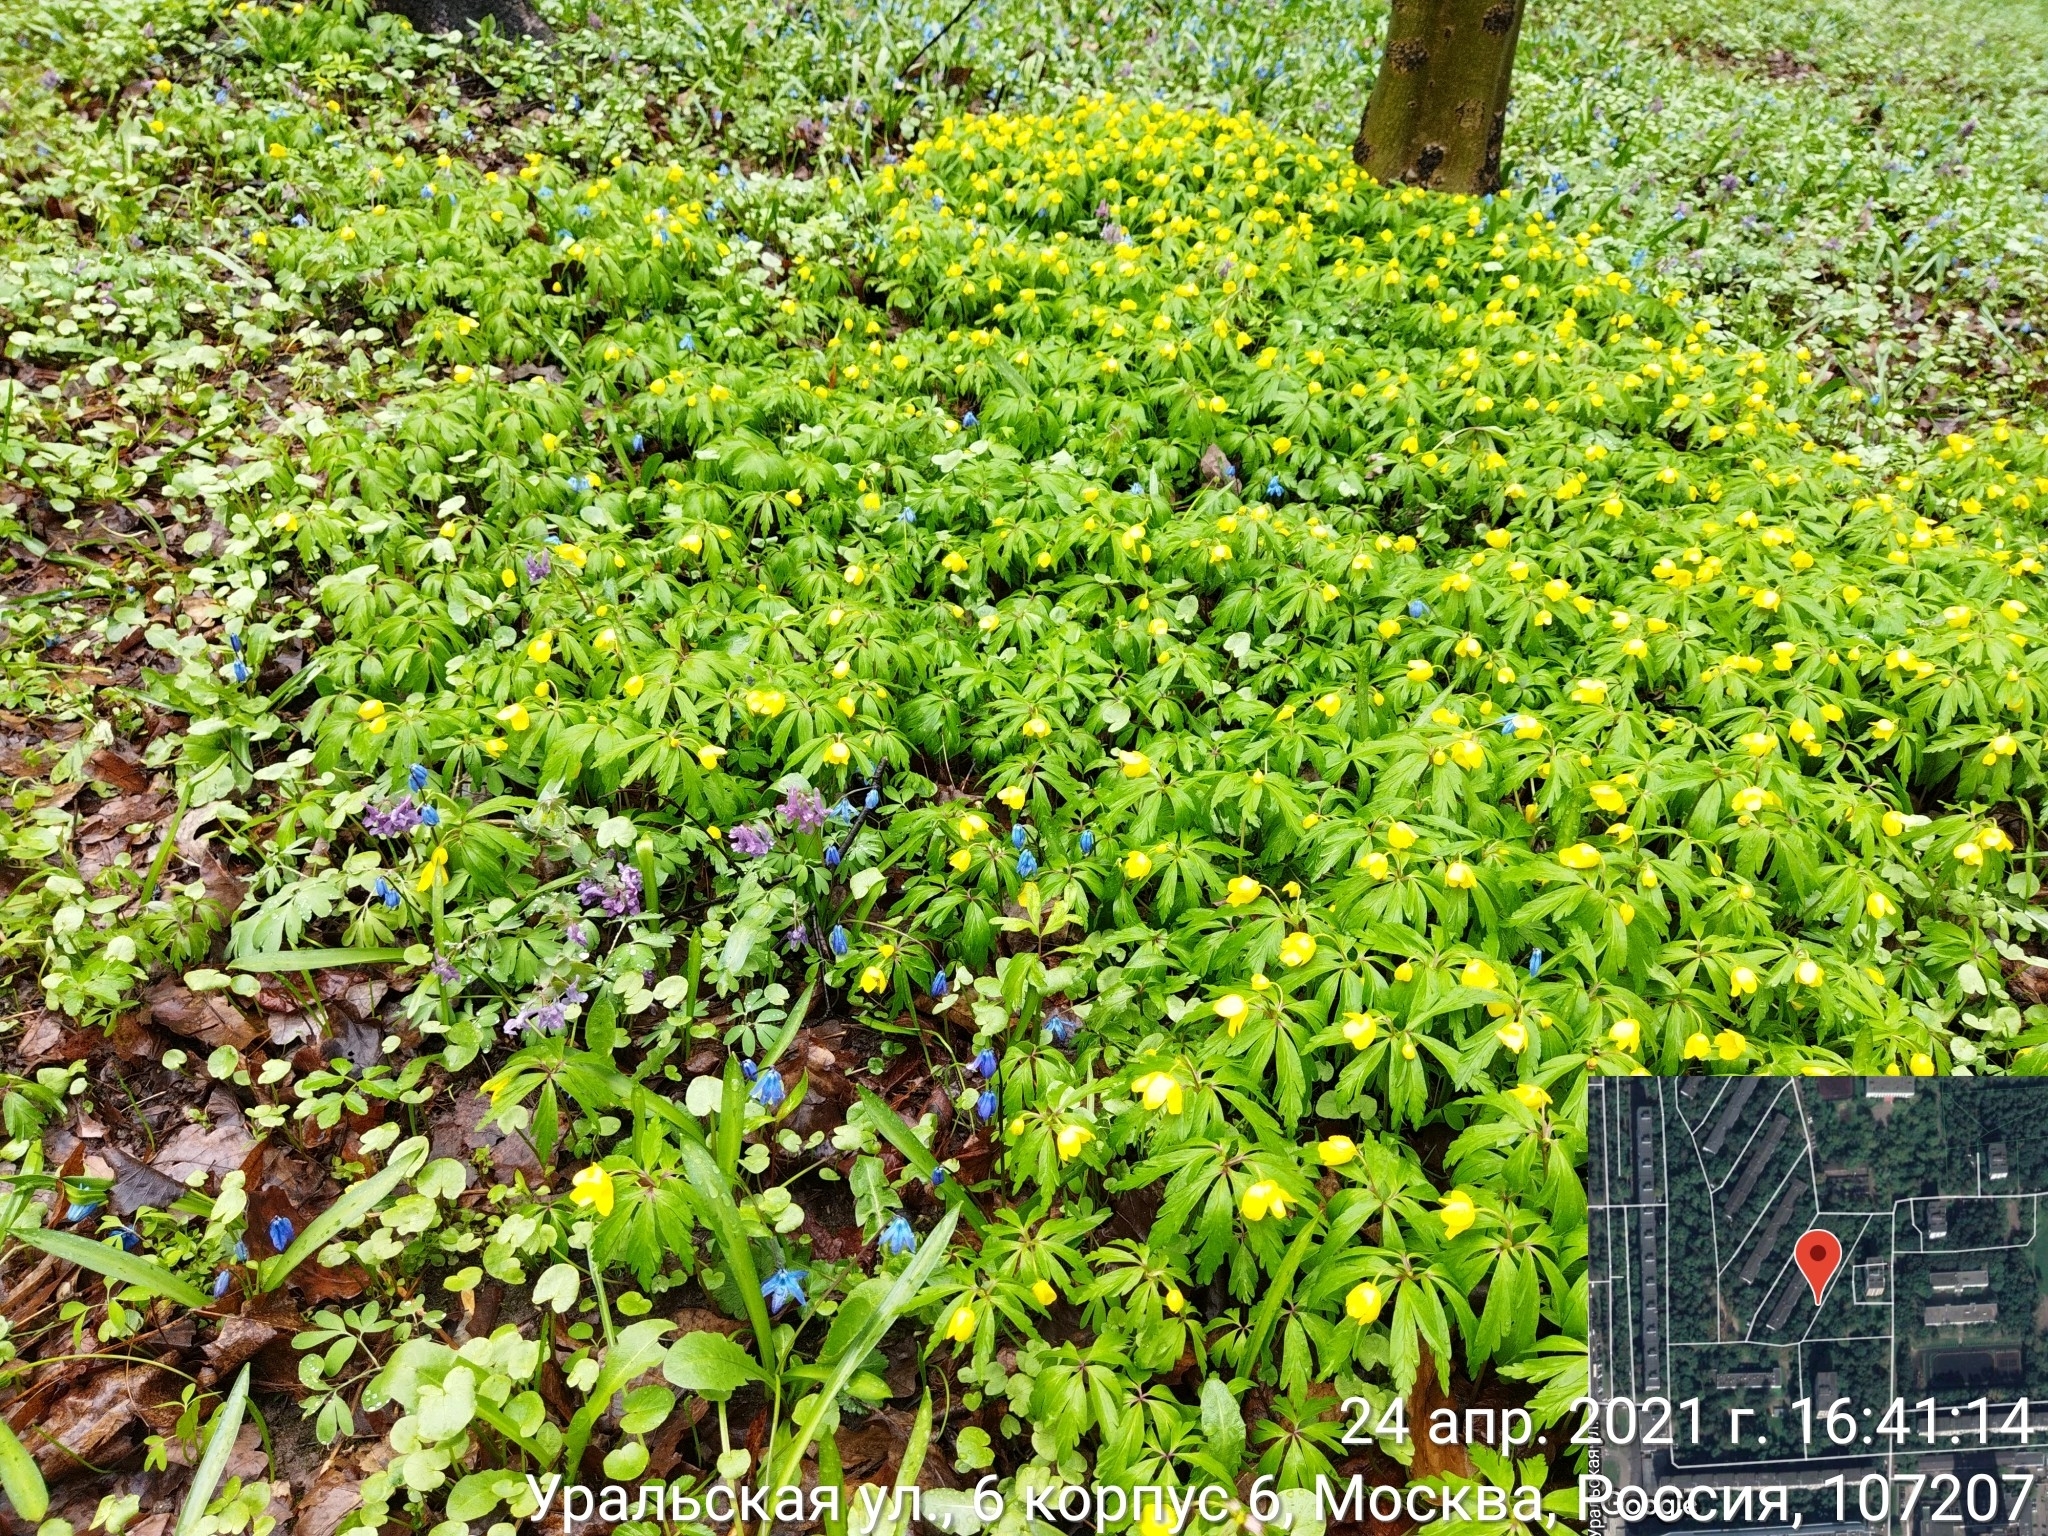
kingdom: Plantae
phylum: Tracheophyta
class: Magnoliopsida
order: Ranunculales
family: Ranunculaceae
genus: Anemone
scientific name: Anemone ranunculoides
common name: Yellow anemone
